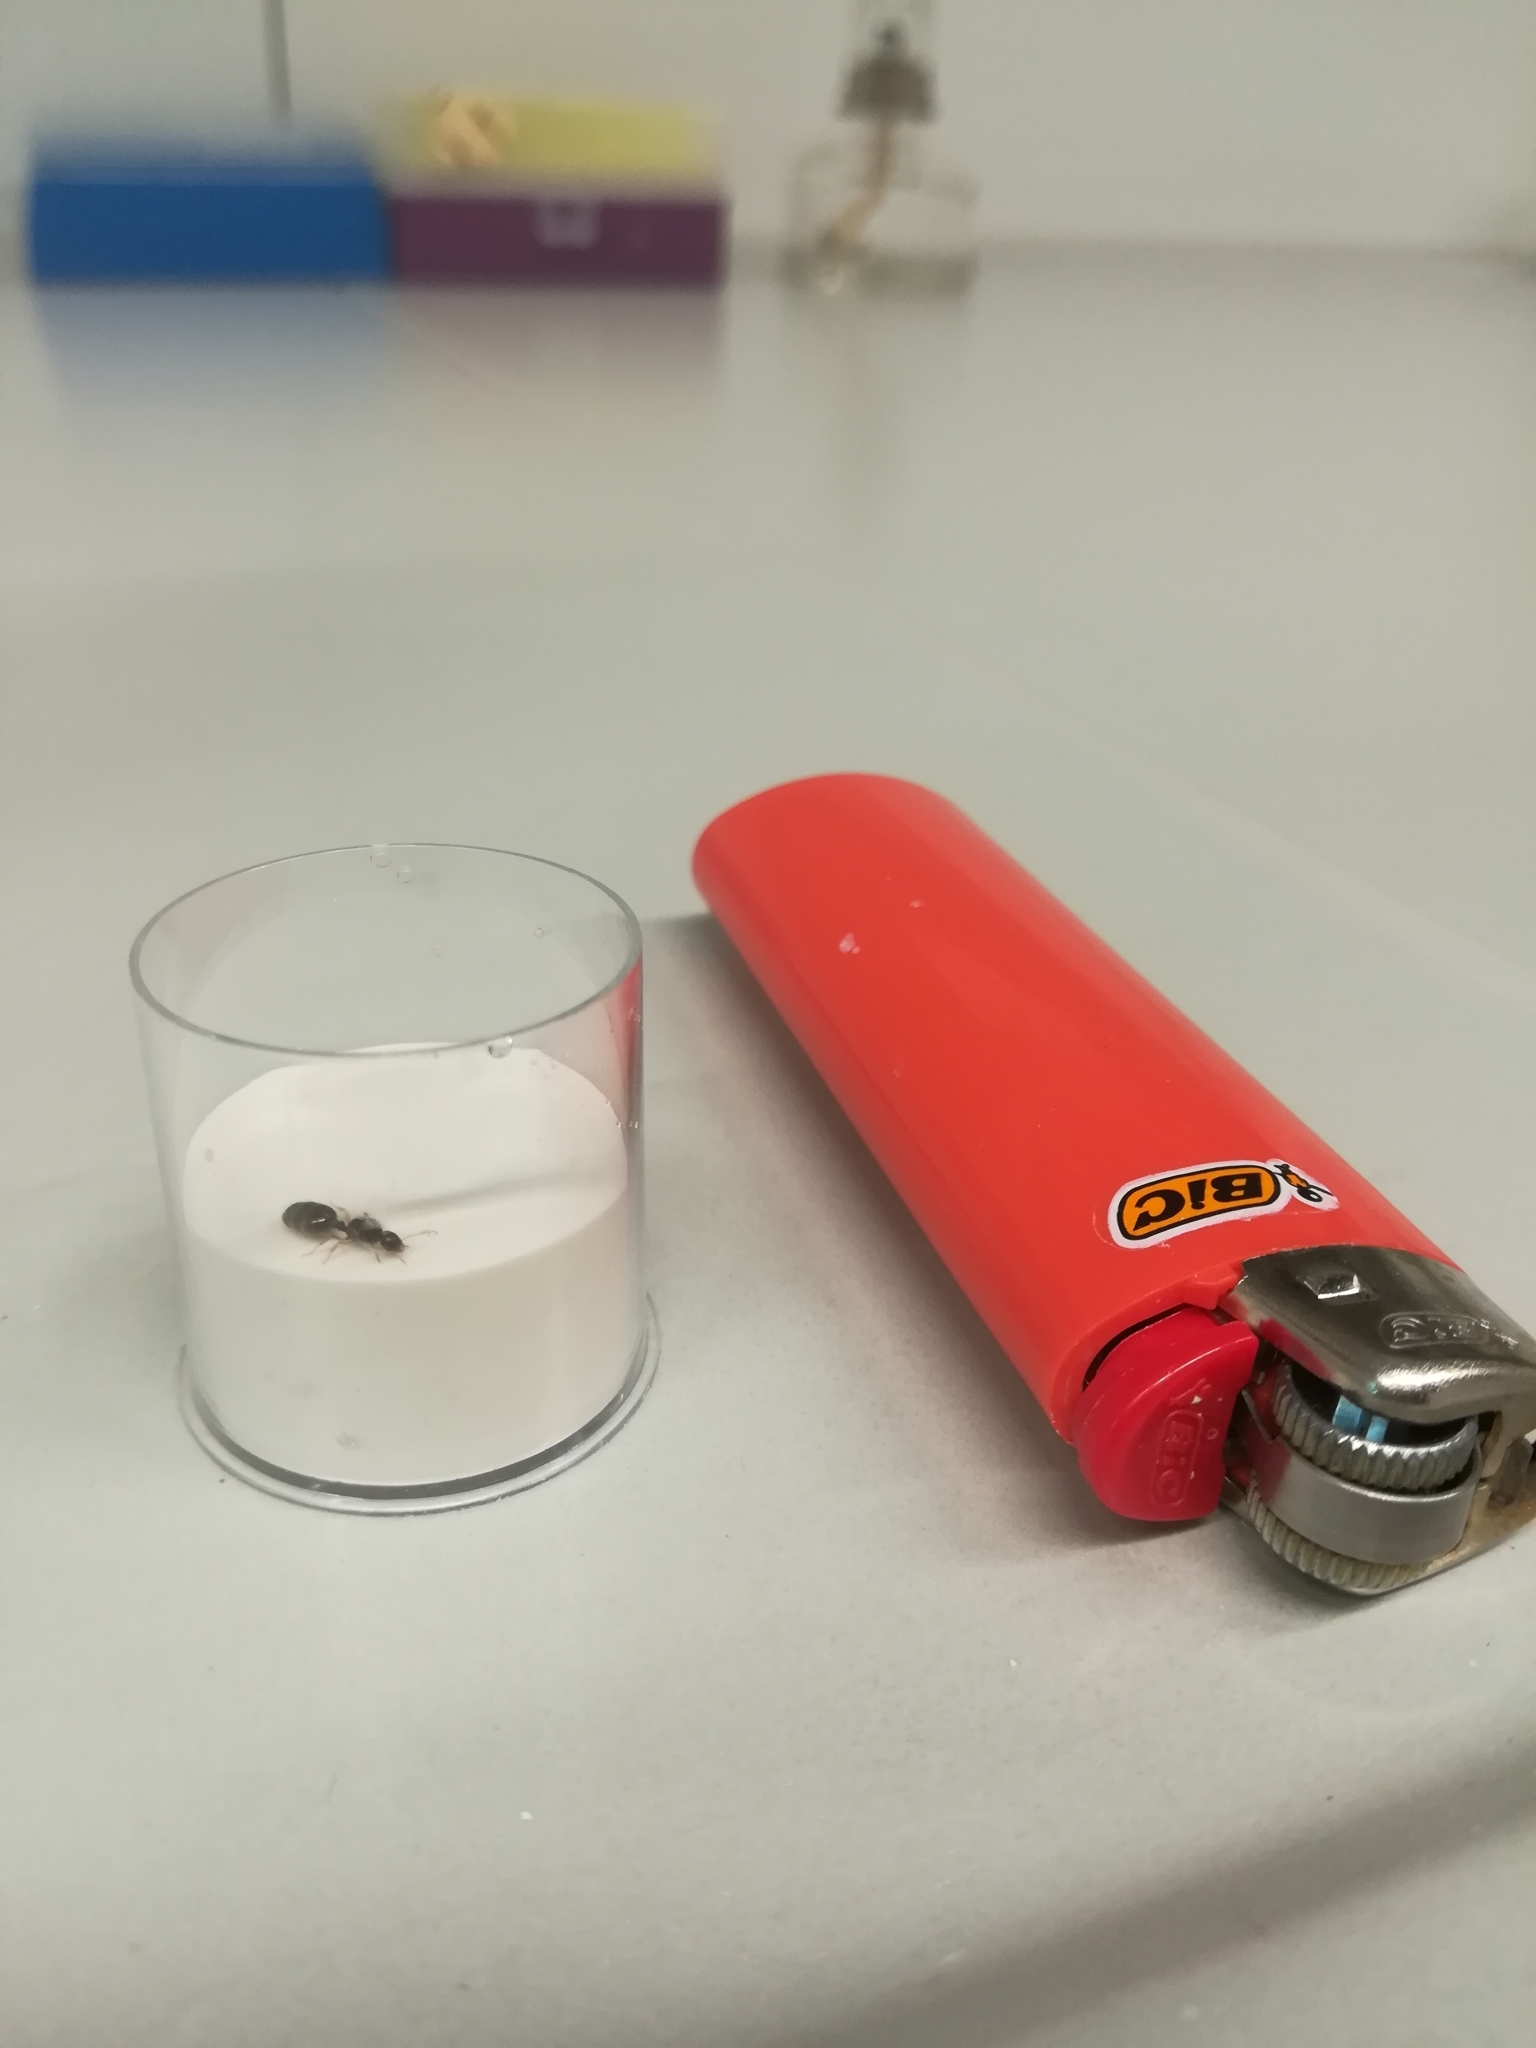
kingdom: Animalia
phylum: Arthropoda
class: Insecta
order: Hymenoptera
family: Formicidae
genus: Solenopsis
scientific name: Solenopsis fugax
